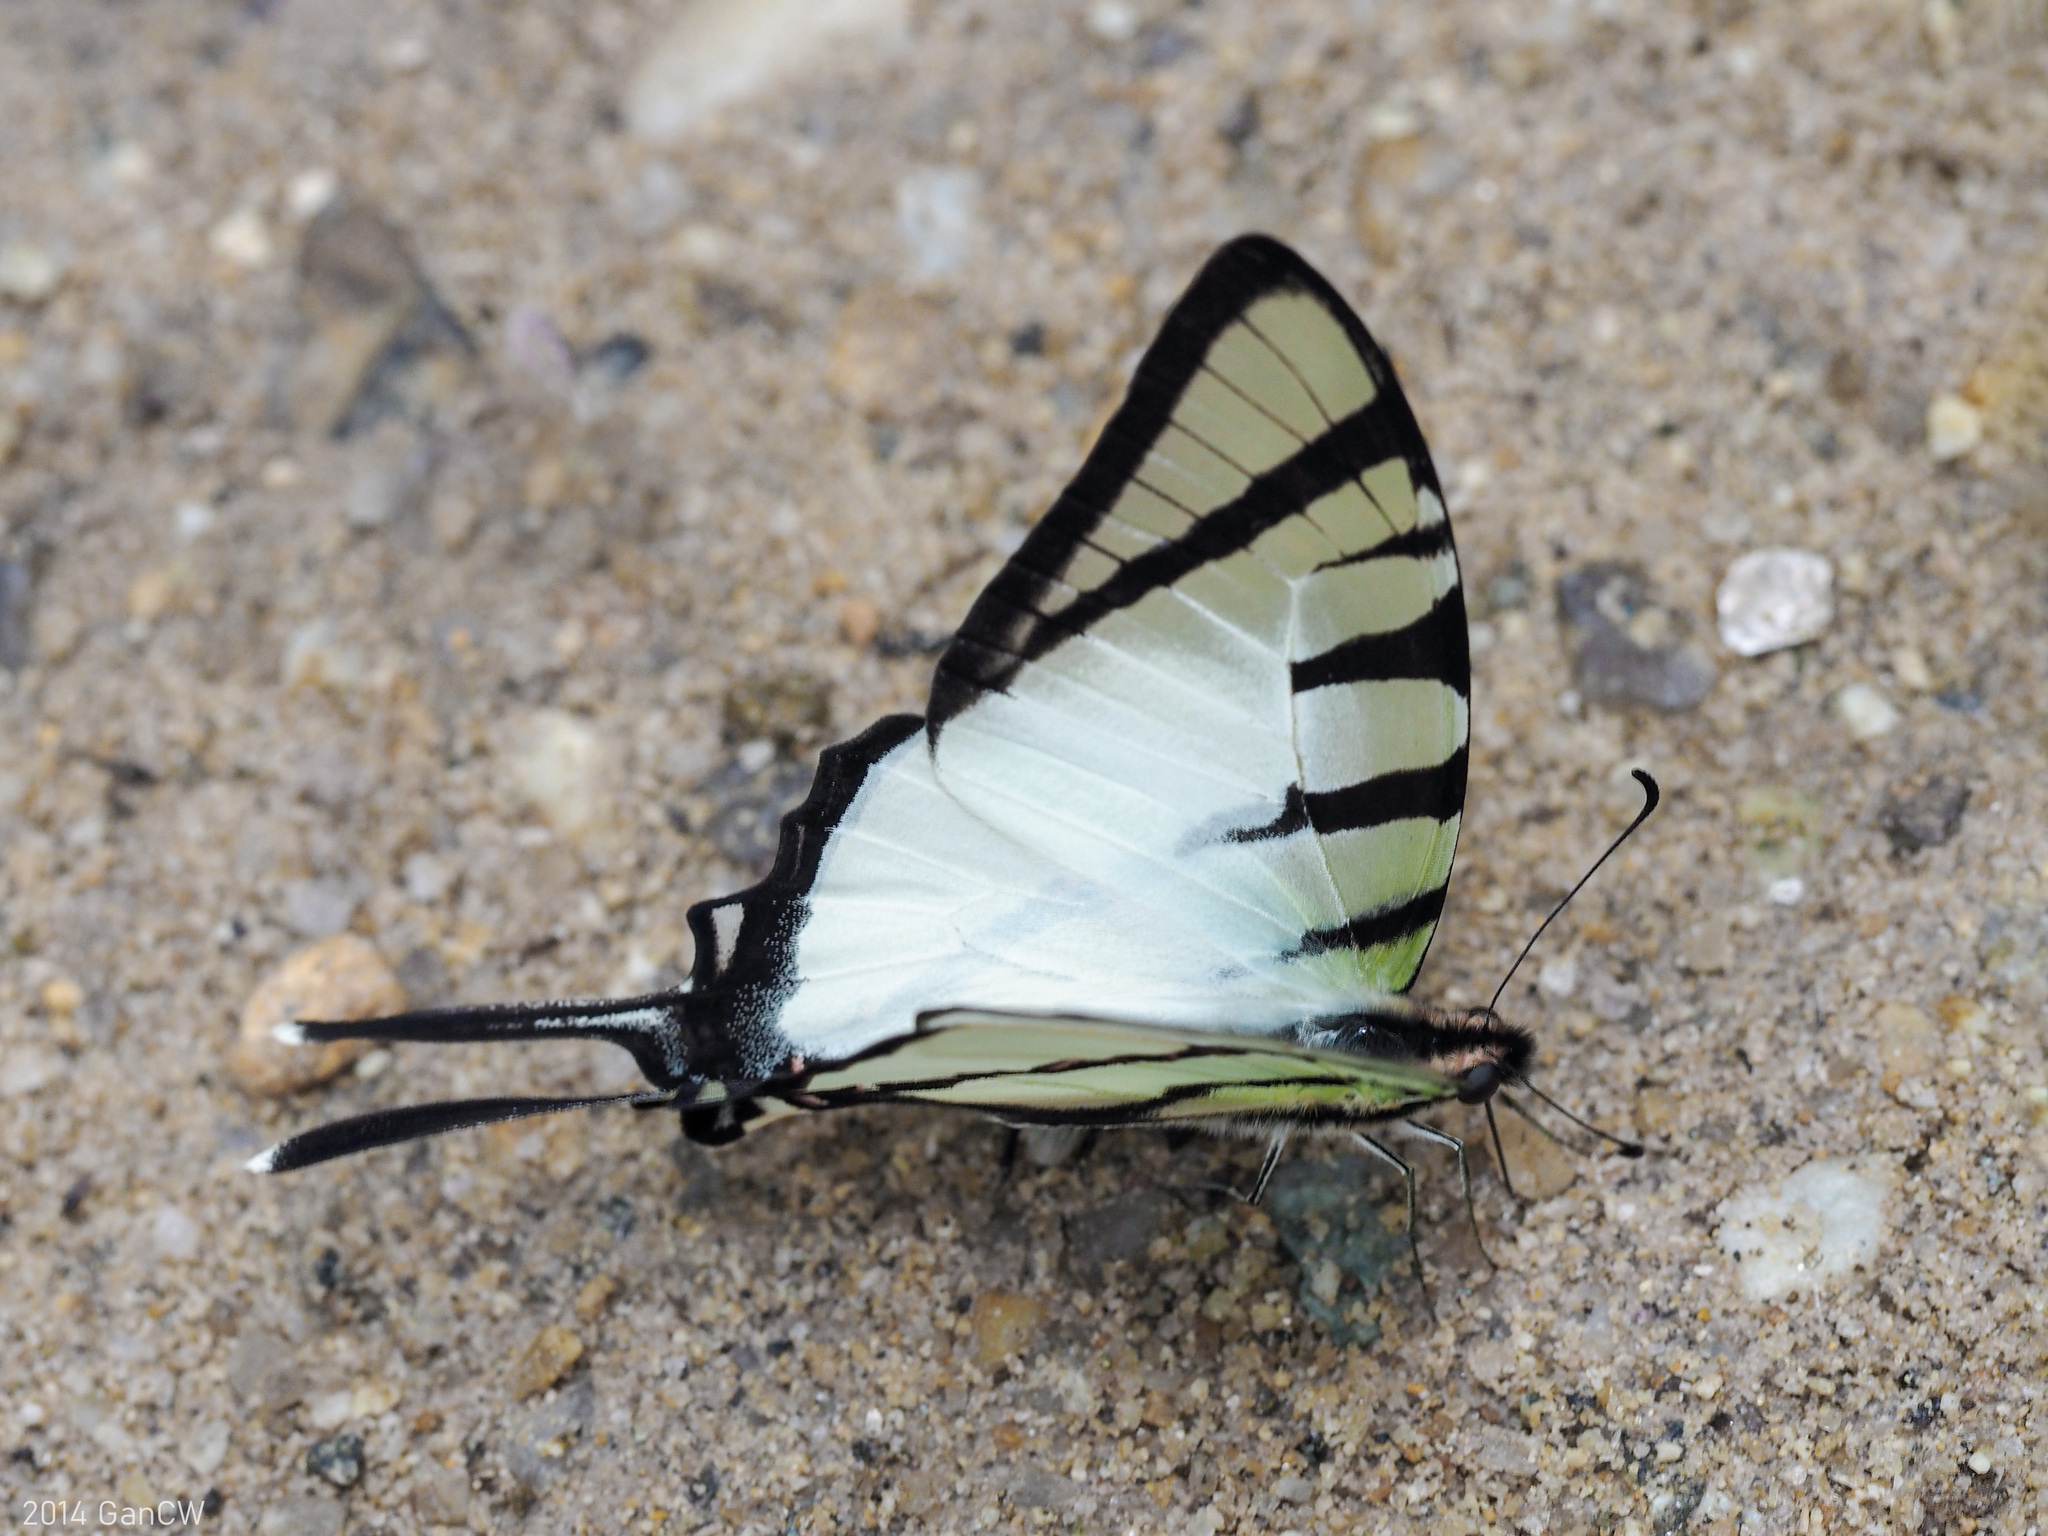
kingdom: Animalia
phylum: Arthropoda
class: Insecta
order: Lepidoptera
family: Papilionidae
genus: Graphium
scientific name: Graphium agetes
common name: Fourbar swordtail
